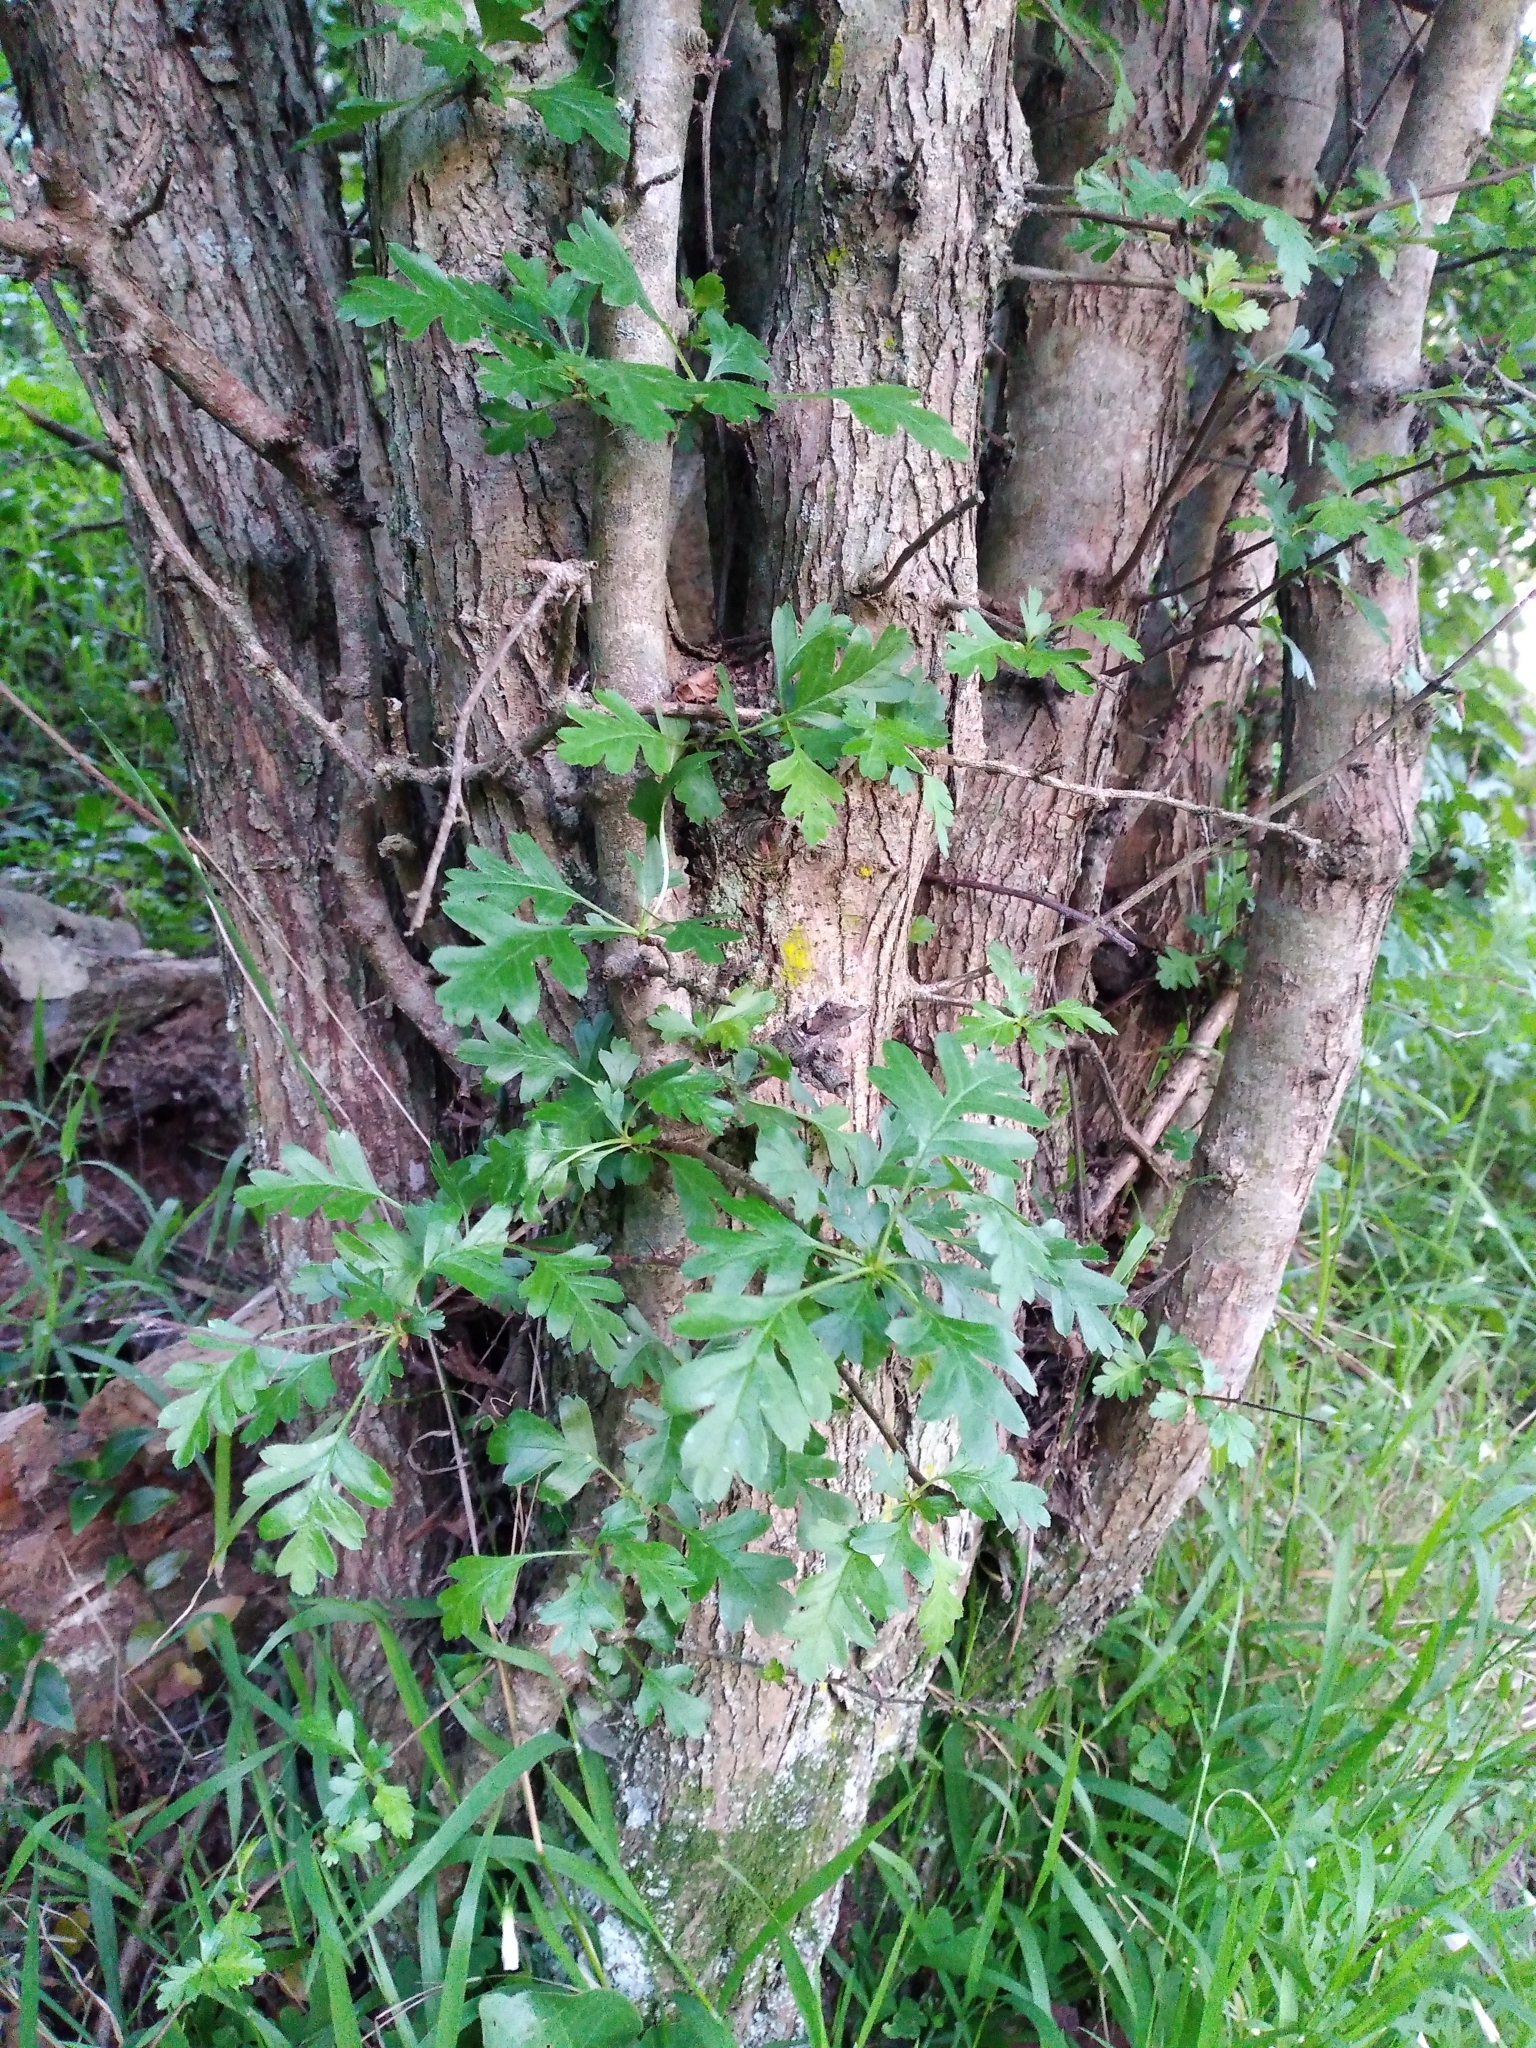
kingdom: Plantae
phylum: Tracheophyta
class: Magnoliopsida
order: Rosales
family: Rosaceae
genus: Crataegus
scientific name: Crataegus monogyna
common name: Hawthorn
